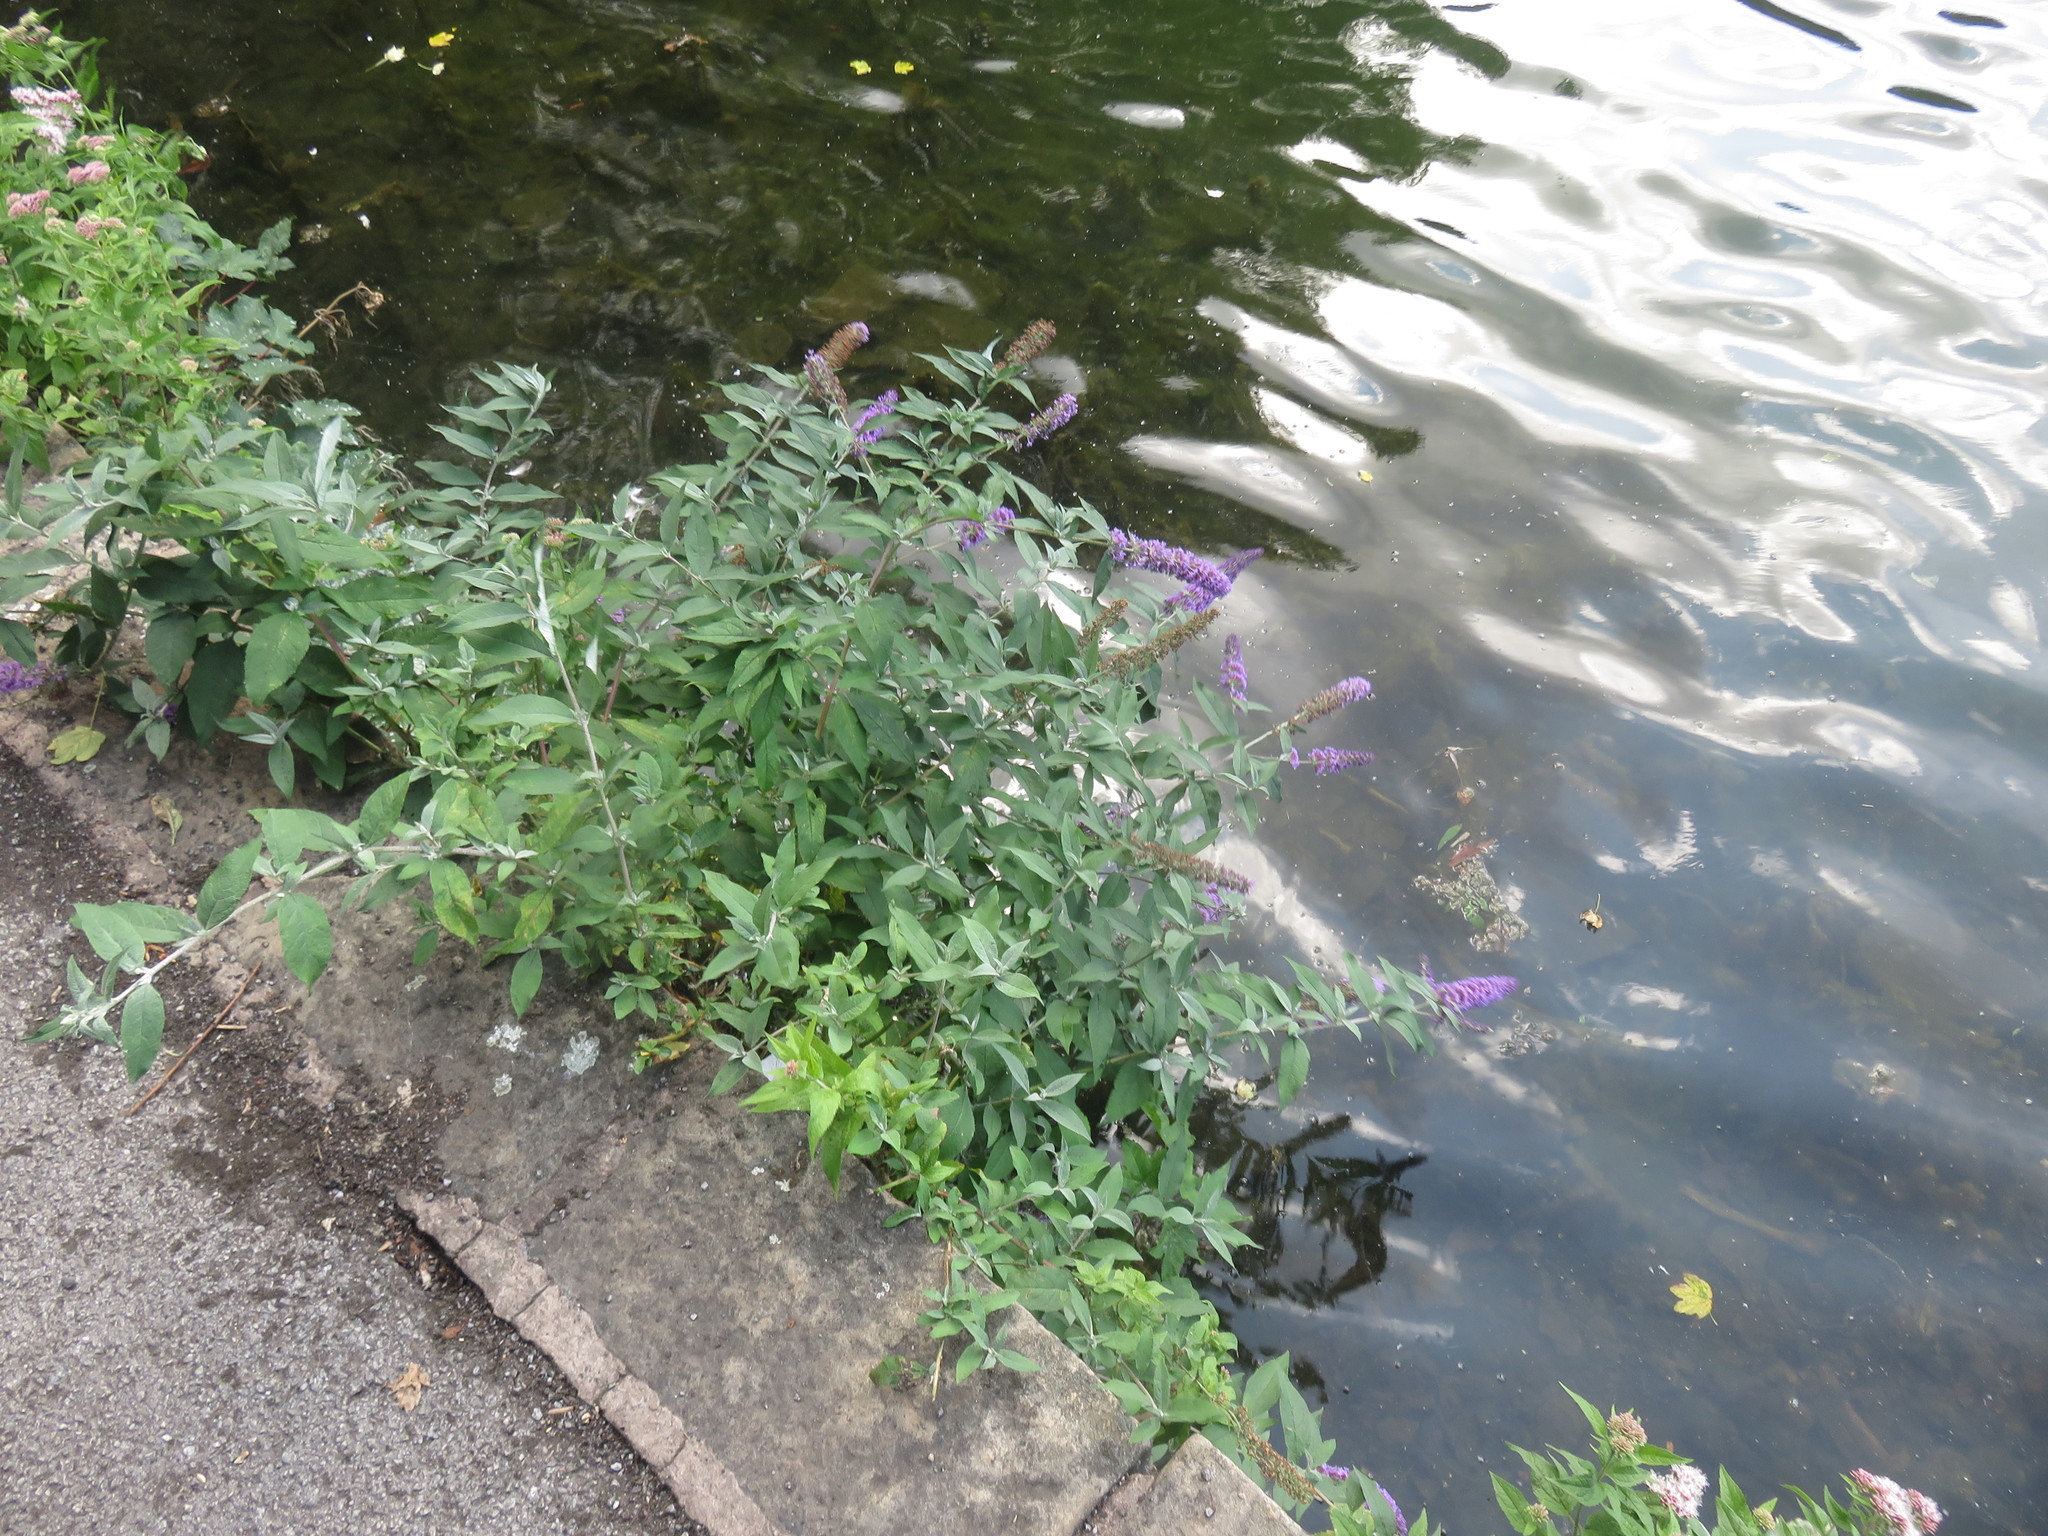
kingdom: Plantae
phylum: Tracheophyta
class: Magnoliopsida
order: Lamiales
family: Scrophulariaceae
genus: Buddleja
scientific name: Buddleja davidii
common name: Butterfly-bush
